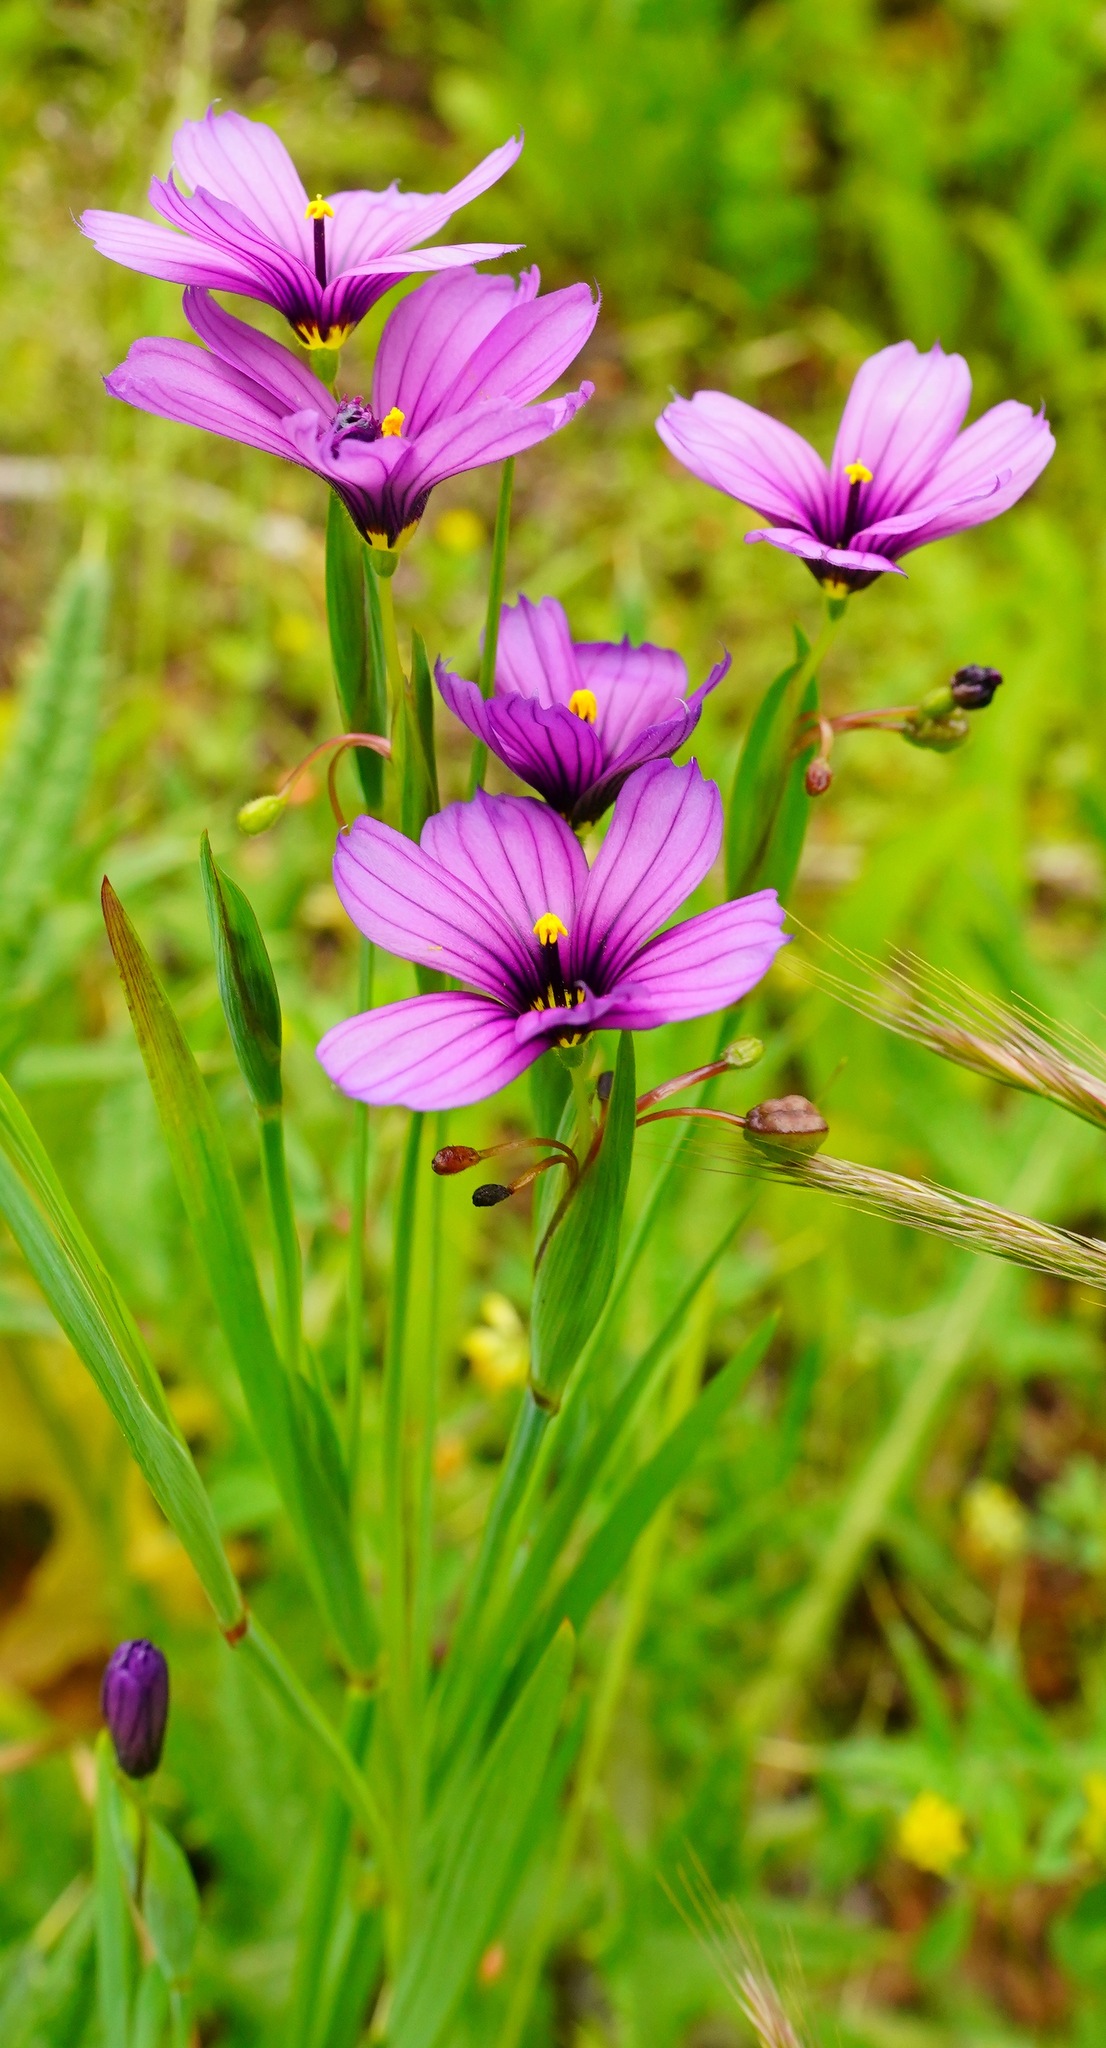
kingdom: Plantae
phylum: Tracheophyta
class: Liliopsida
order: Asparagales
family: Iridaceae
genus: Sisyrinchium
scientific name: Sisyrinchium bellum
